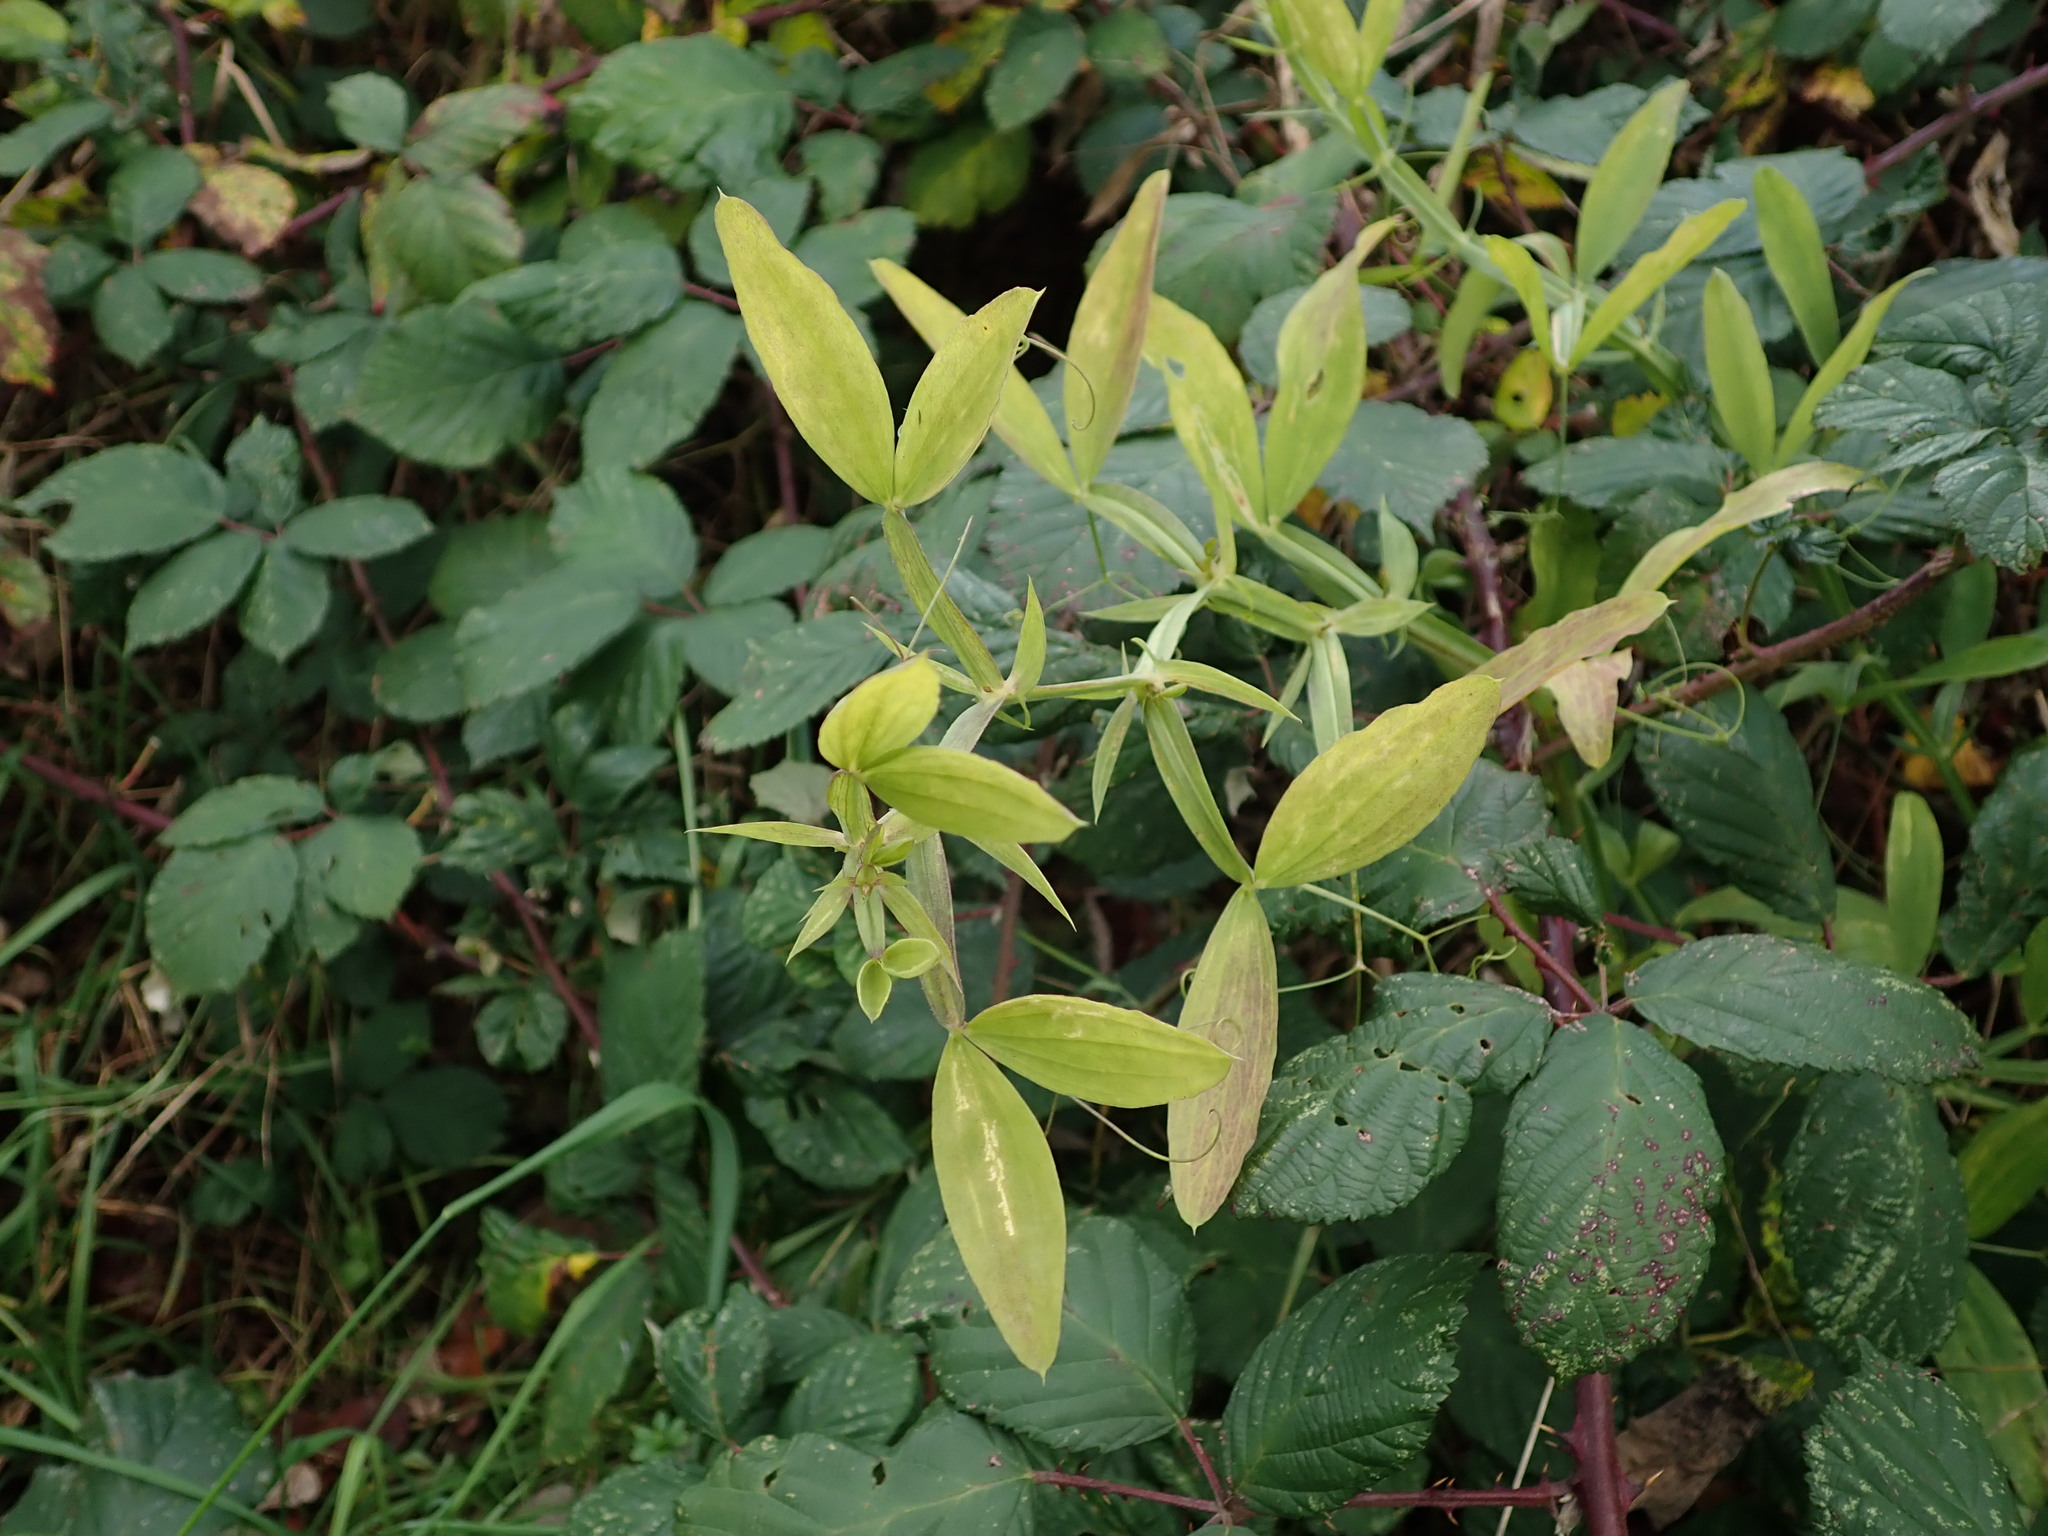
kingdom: Plantae
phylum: Tracheophyta
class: Magnoliopsida
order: Fabales
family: Fabaceae
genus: Lathyrus
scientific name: Lathyrus latifolius
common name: Perennial pea
